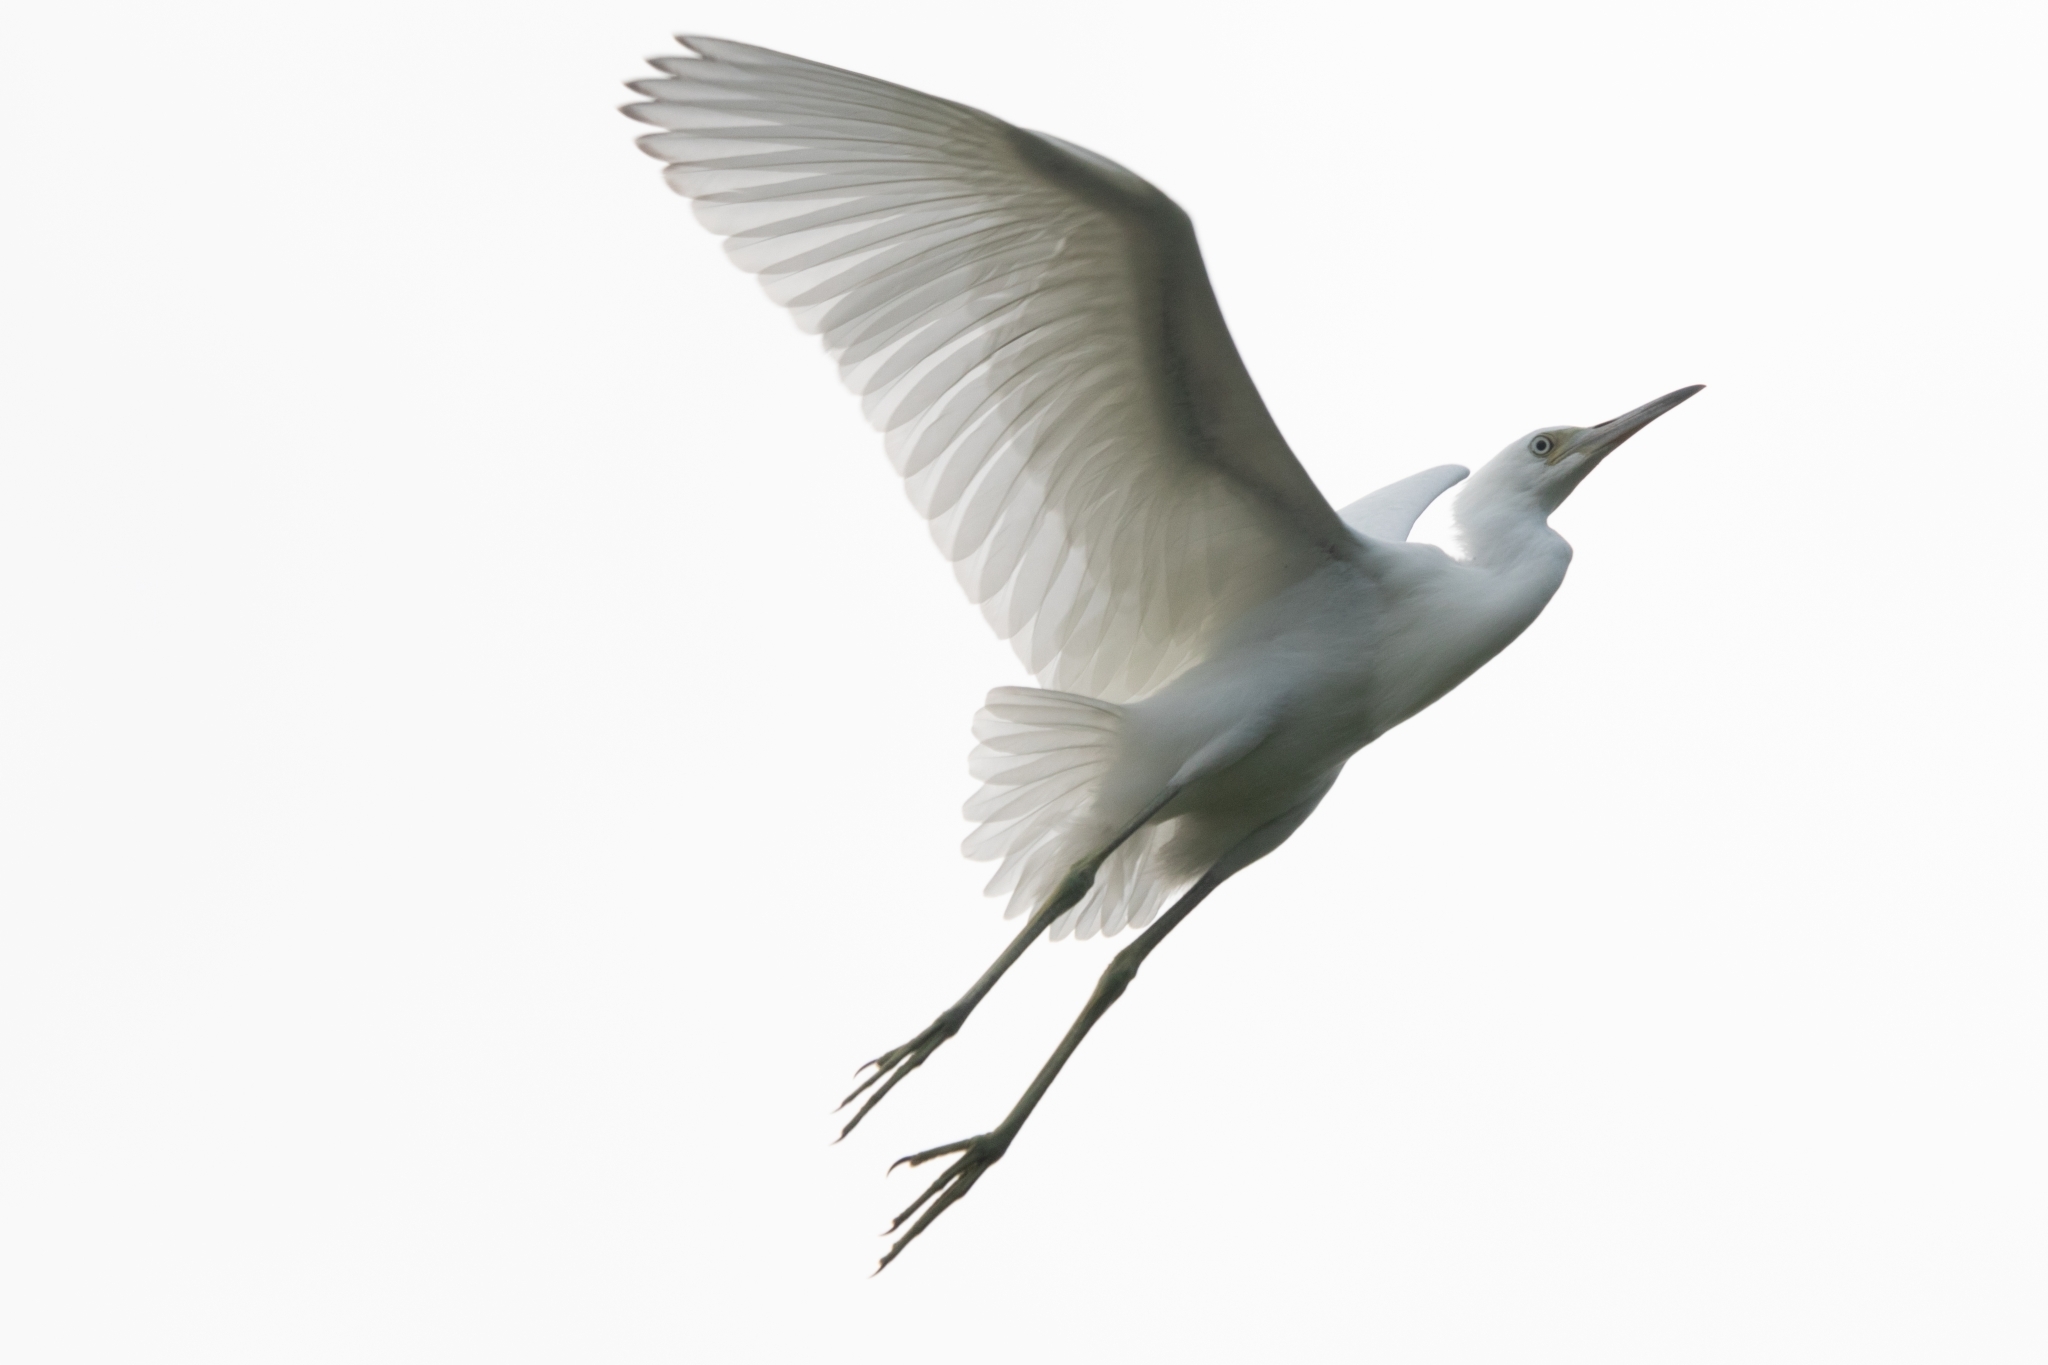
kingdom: Animalia
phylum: Chordata
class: Aves
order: Pelecaniformes
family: Ardeidae
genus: Egretta
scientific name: Egretta caerulea
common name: Little blue heron
